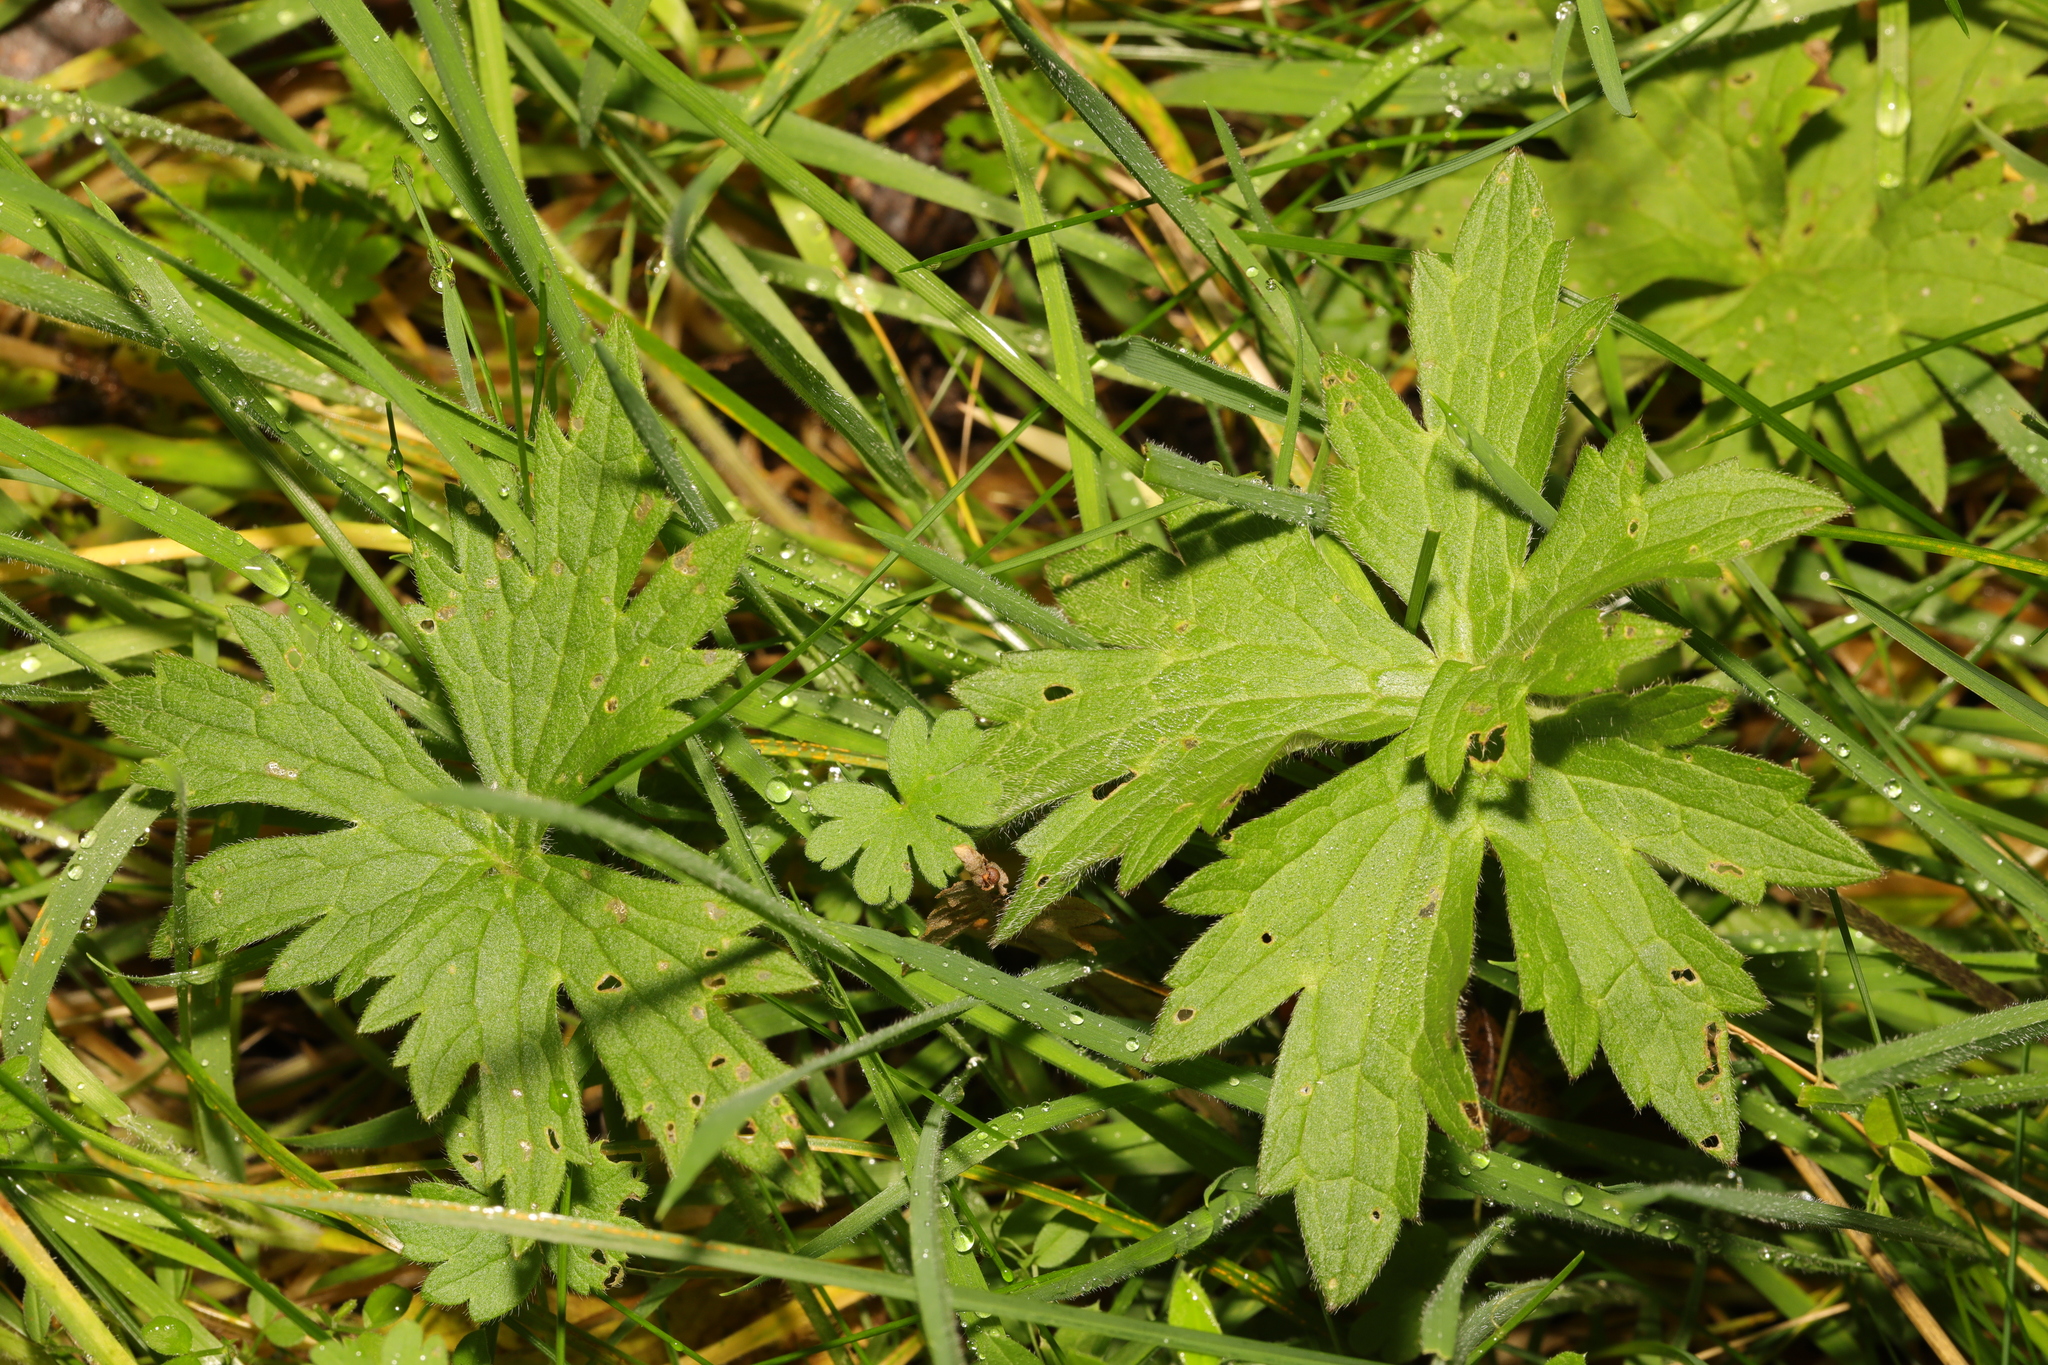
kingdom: Plantae
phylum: Tracheophyta
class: Magnoliopsida
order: Ranunculales
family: Ranunculaceae
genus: Ranunculus
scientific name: Ranunculus acris
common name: Meadow buttercup
